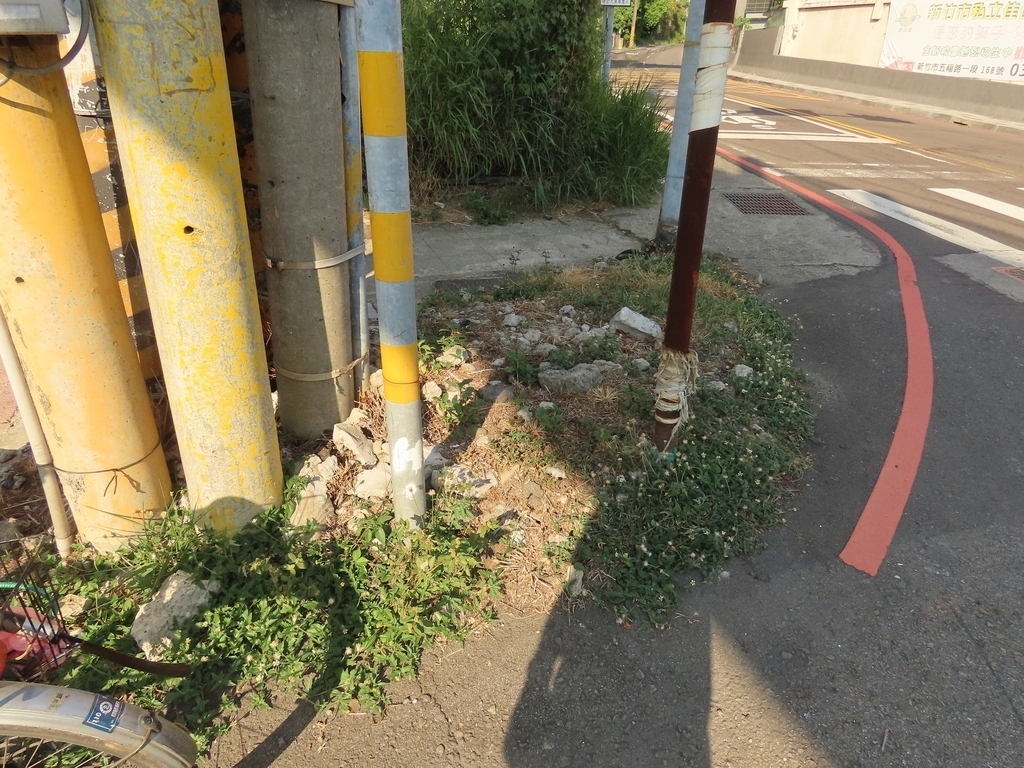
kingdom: Plantae
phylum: Tracheophyta
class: Magnoliopsida
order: Asterales
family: Asteraceae
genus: Tridax
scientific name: Tridax procumbens
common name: Coatbuttons
